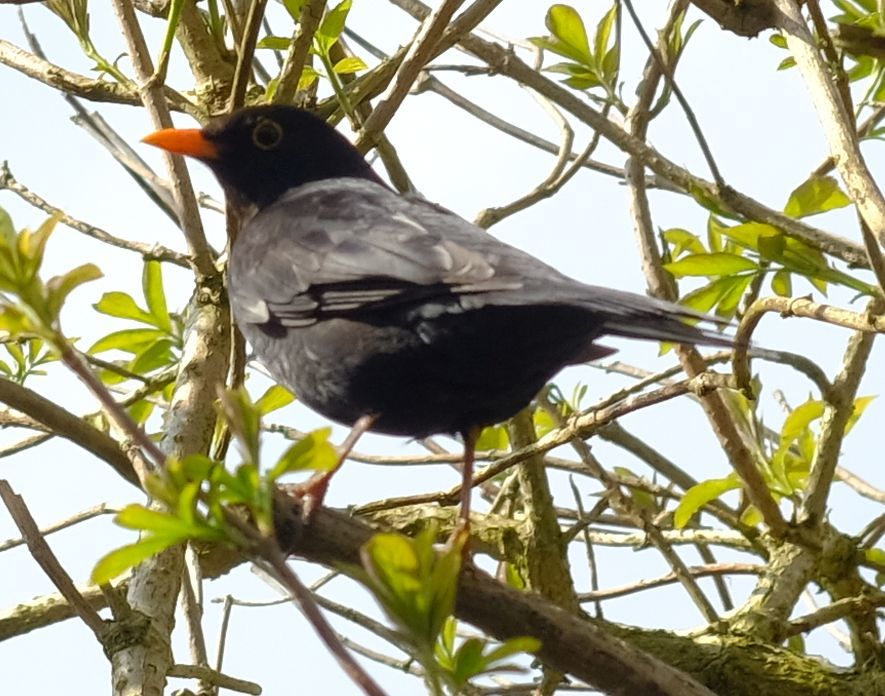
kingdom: Animalia
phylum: Chordata
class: Aves
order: Passeriformes
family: Turdidae
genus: Turdus
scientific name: Turdus merula
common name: Common blackbird
